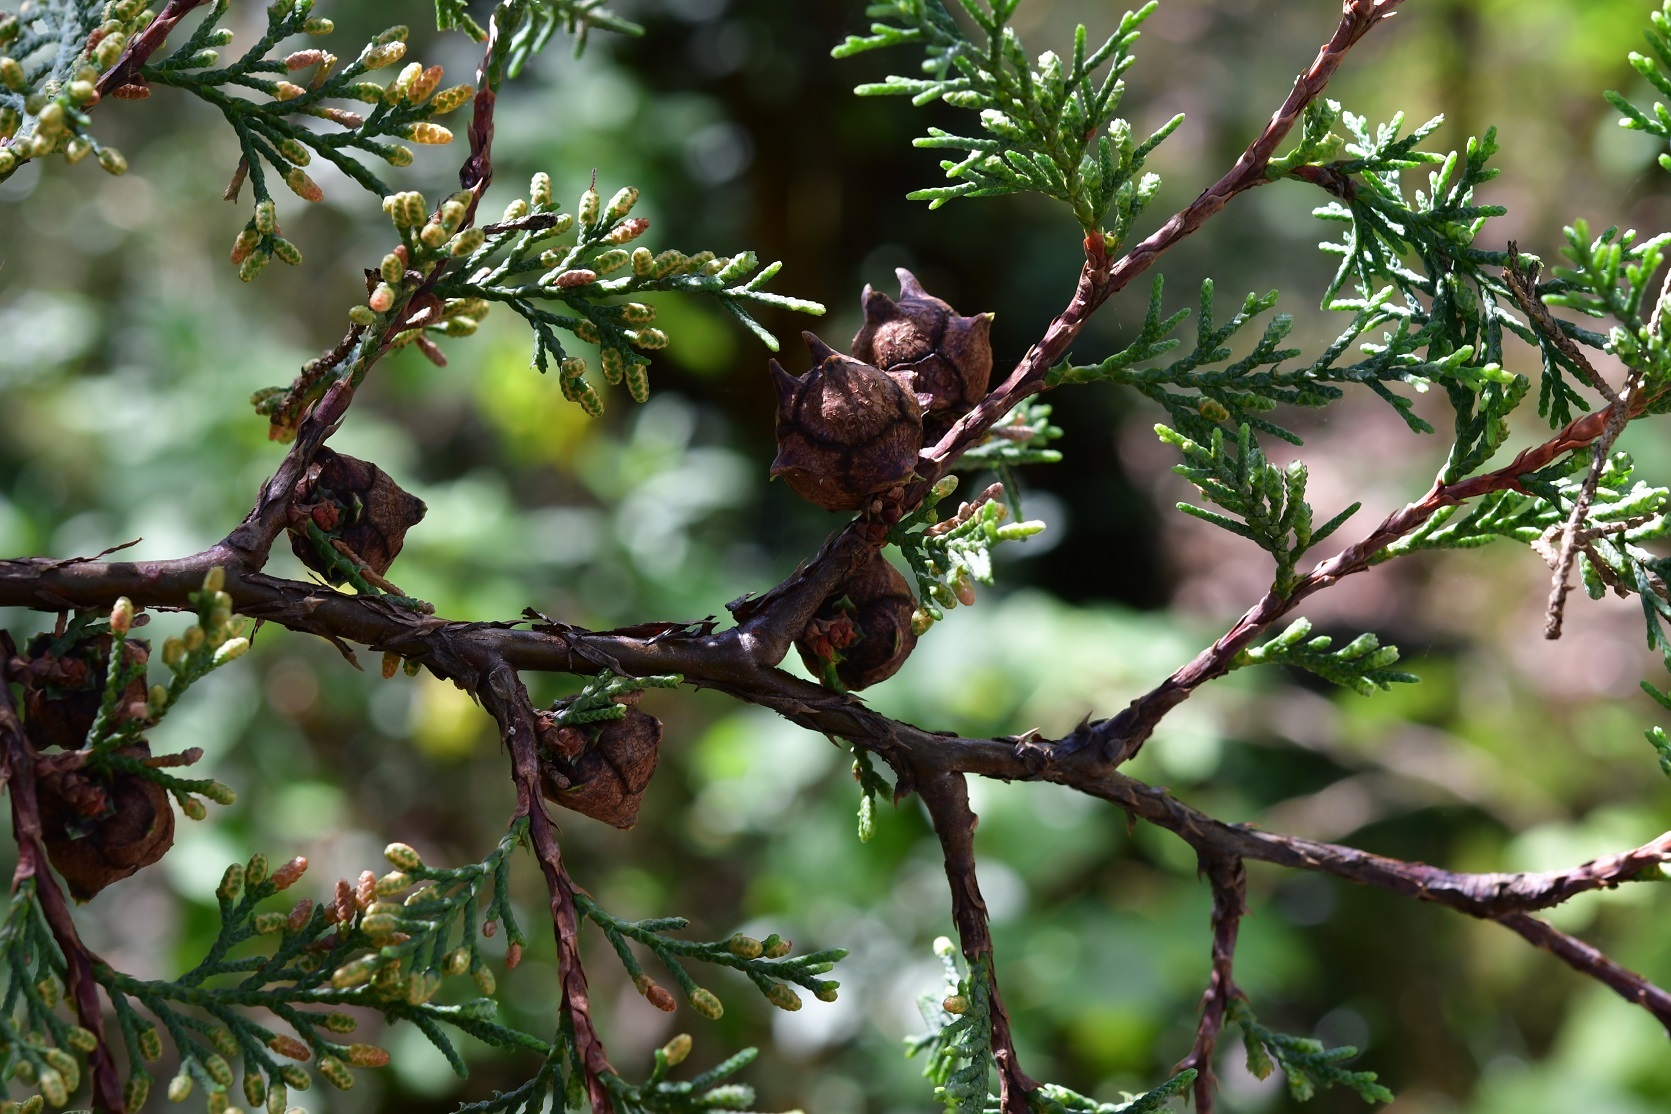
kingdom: Plantae
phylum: Tracheophyta
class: Pinopsida
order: Pinales
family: Cupressaceae
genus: Cupressus
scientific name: Cupressus lusitanica
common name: Mexican cypress
